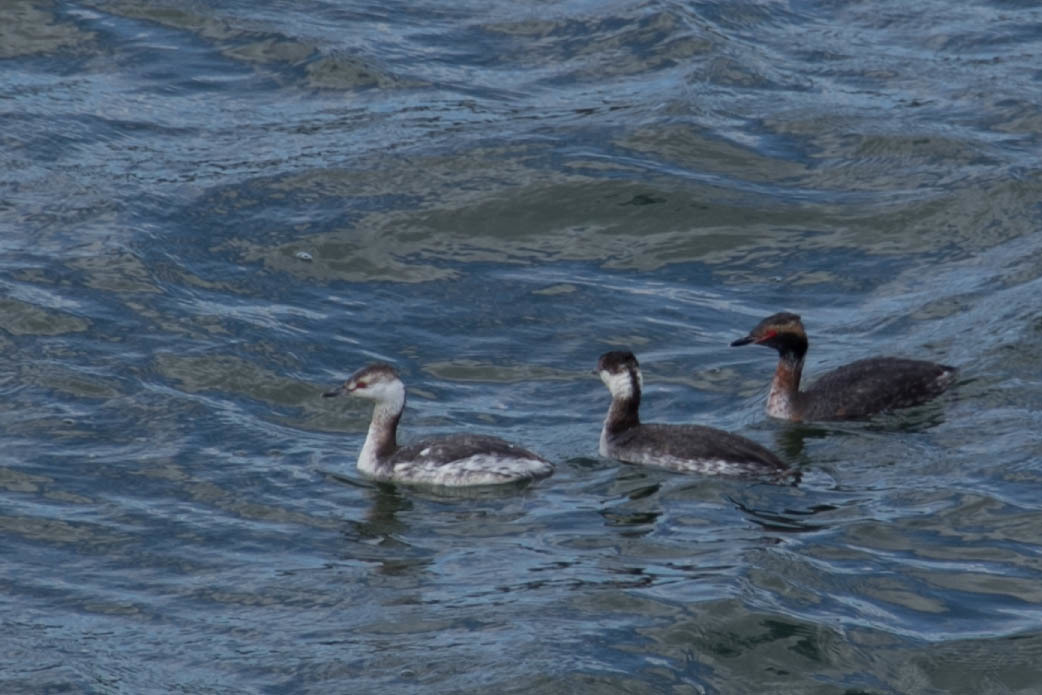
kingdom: Animalia
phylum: Chordata
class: Aves
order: Podicipediformes
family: Podicipedidae
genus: Podiceps
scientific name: Podiceps auritus
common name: Horned grebe
